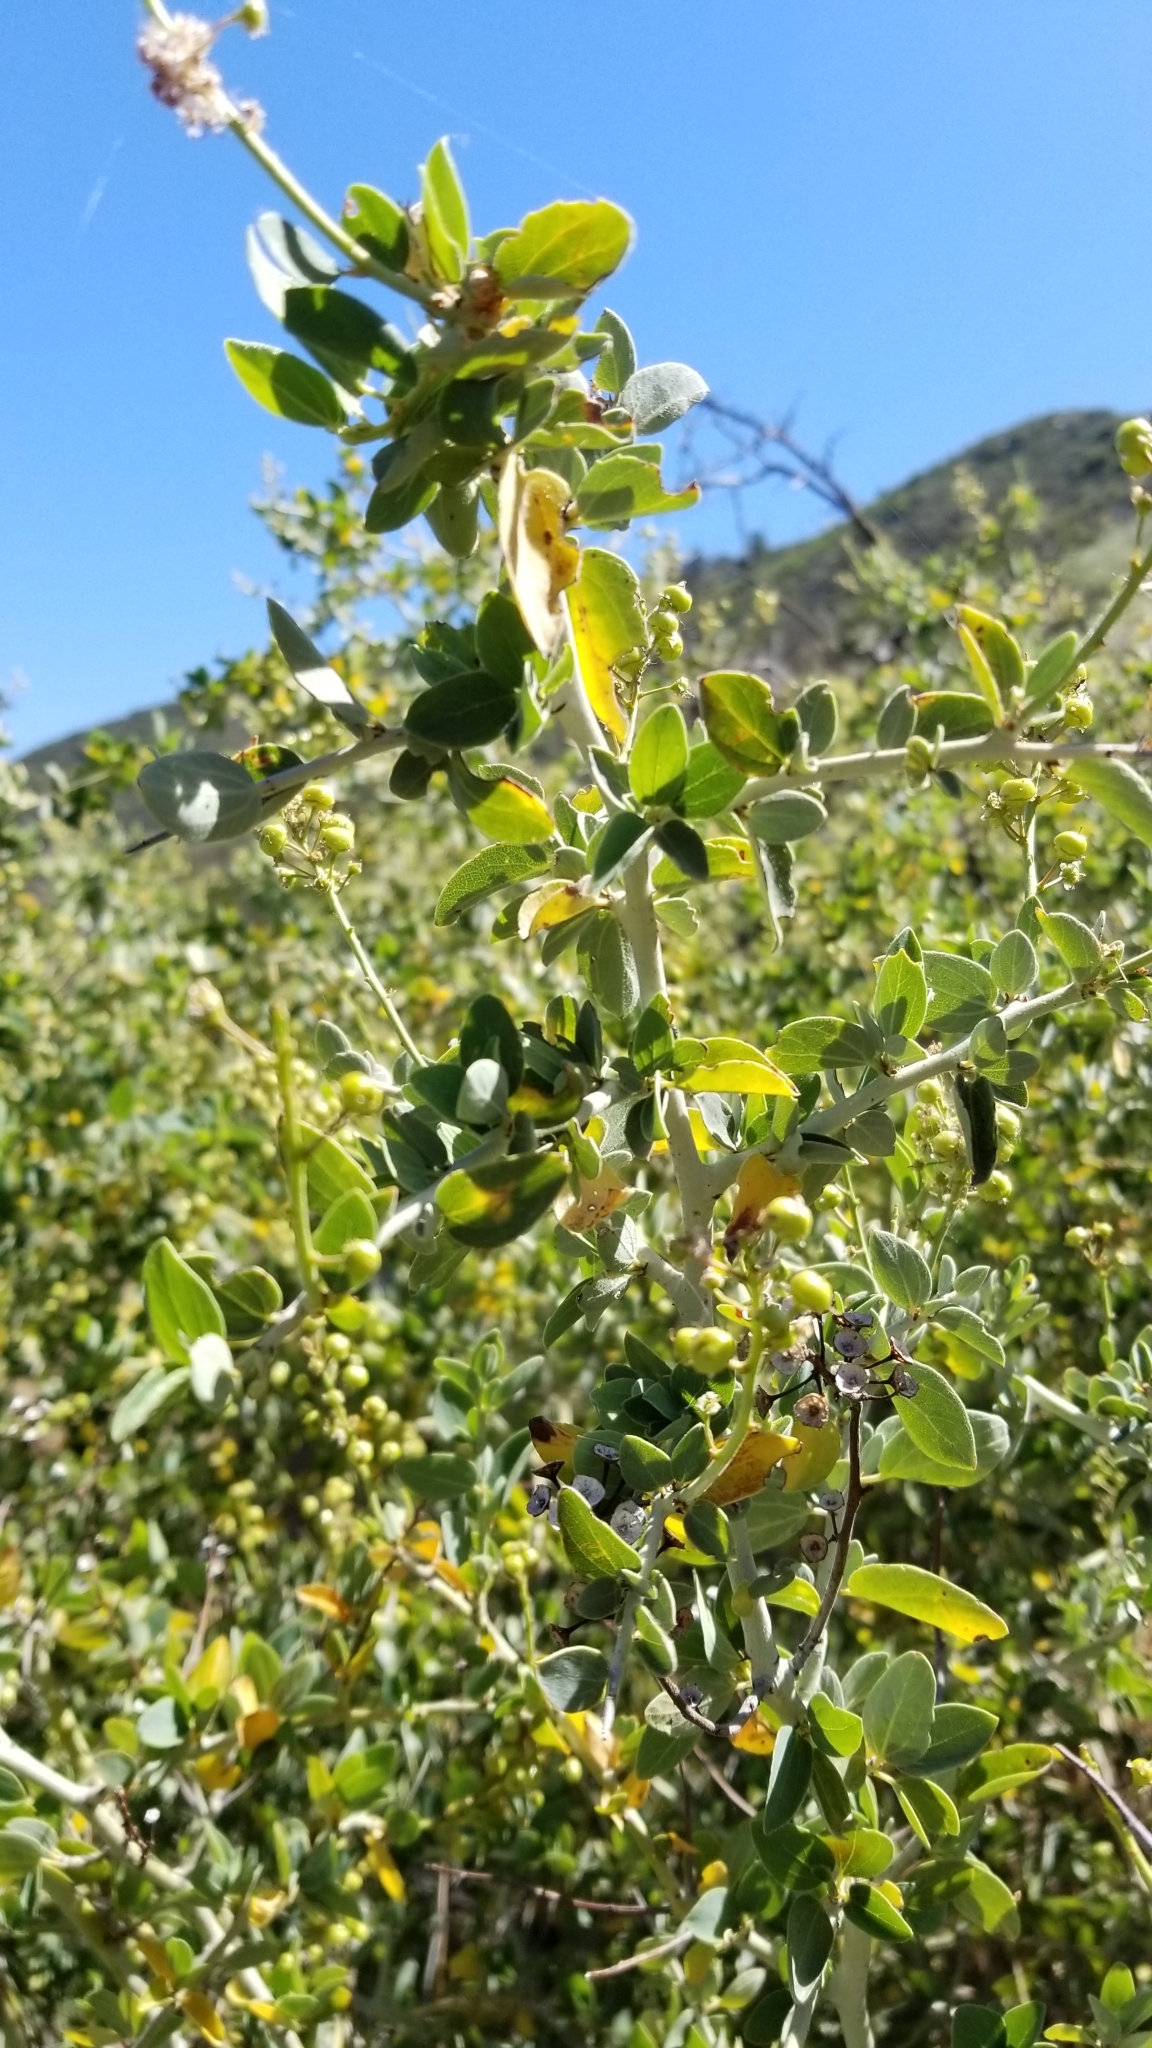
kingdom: Plantae
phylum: Tracheophyta
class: Magnoliopsida
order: Rosales
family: Rhamnaceae
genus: Ceanothus
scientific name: Ceanothus leucodermis
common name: Chaparral whitethorn
